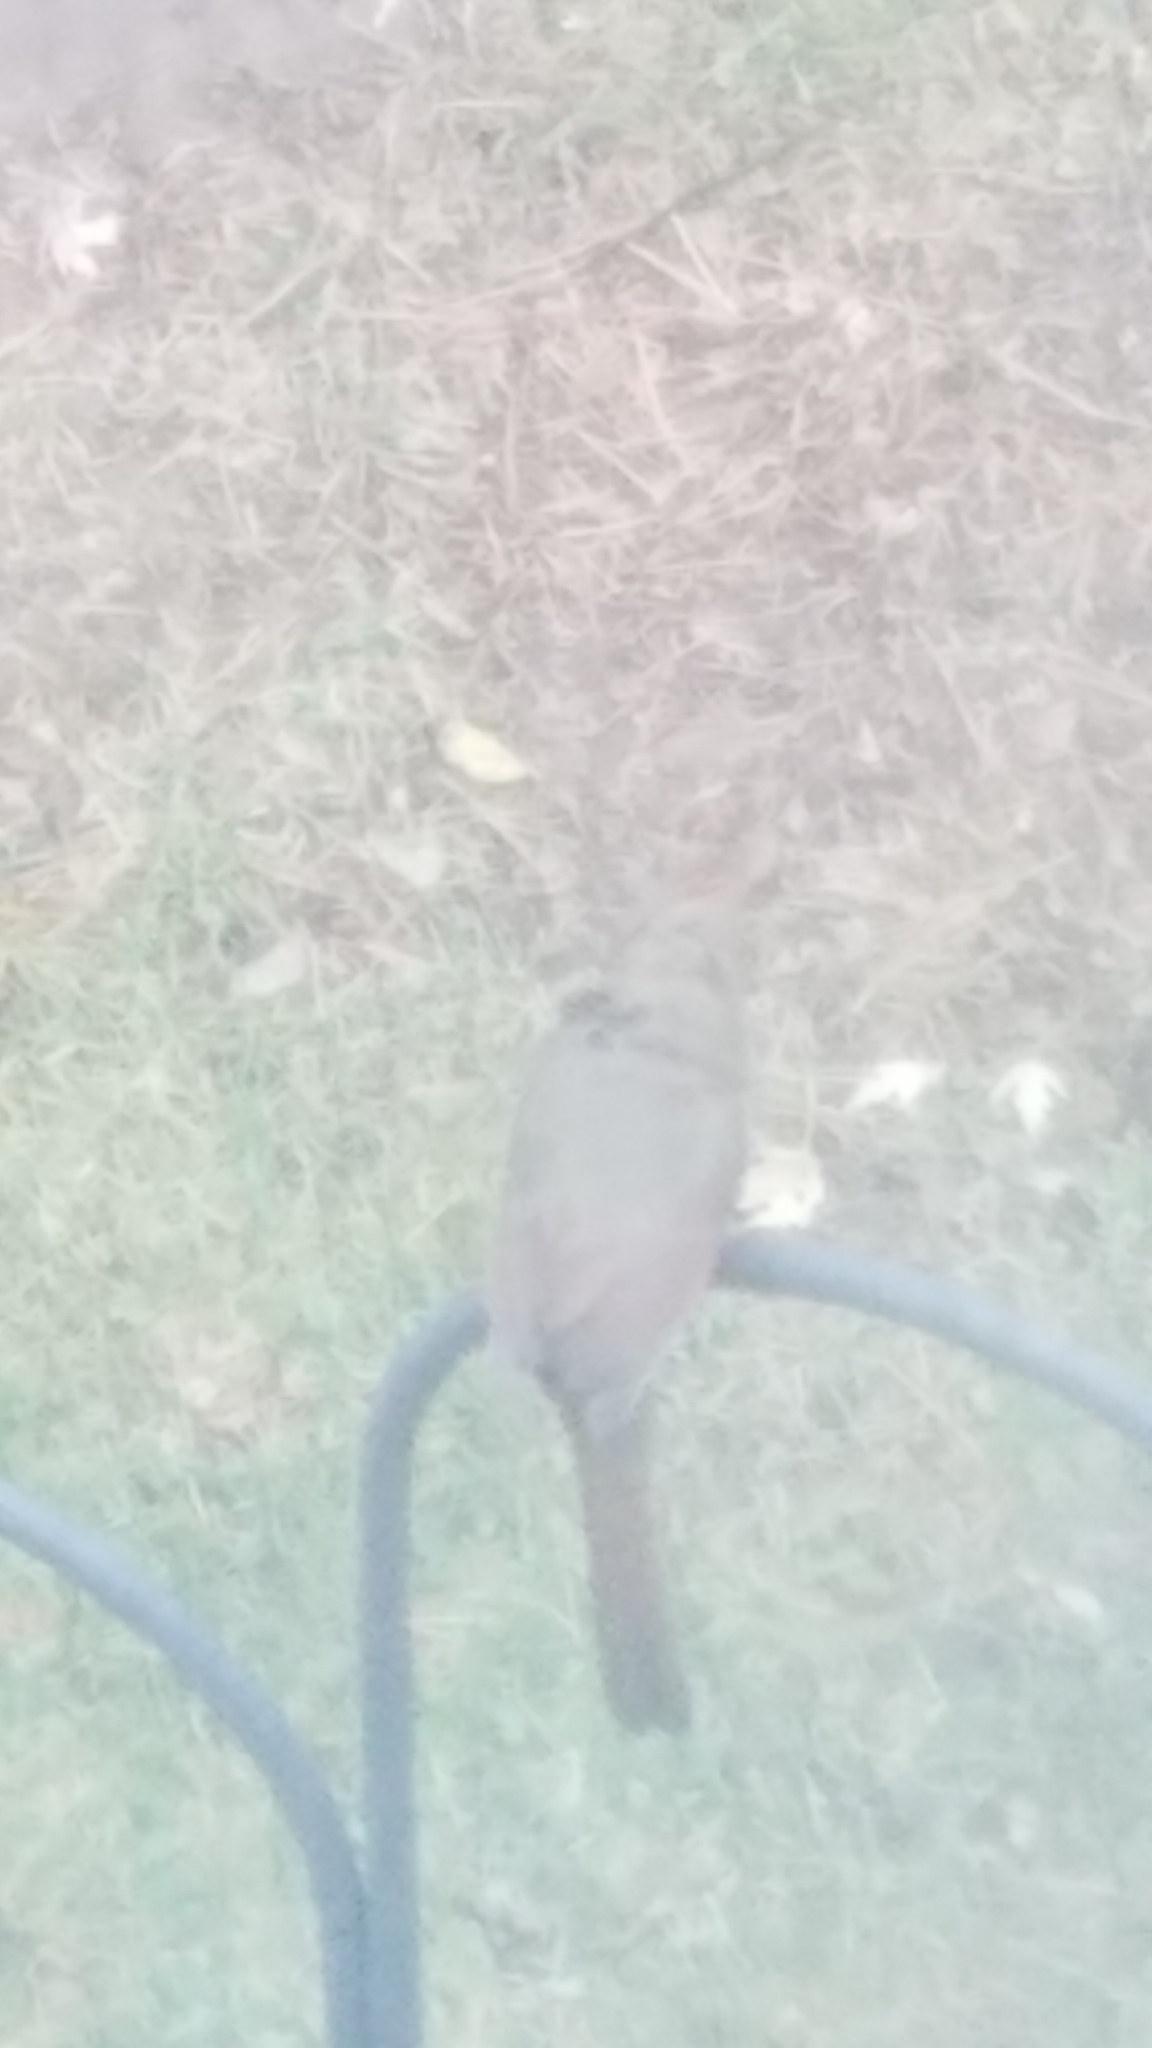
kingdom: Animalia
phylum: Chordata
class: Aves
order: Passeriformes
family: Cardinalidae
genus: Cardinalis
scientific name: Cardinalis cardinalis
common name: Northern cardinal
